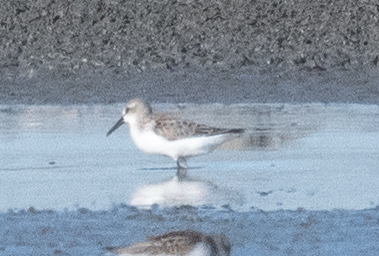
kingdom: Animalia
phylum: Chordata
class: Aves
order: Charadriiformes
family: Scolopacidae
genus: Calidris
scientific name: Calidris mauri
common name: Western sandpiper
